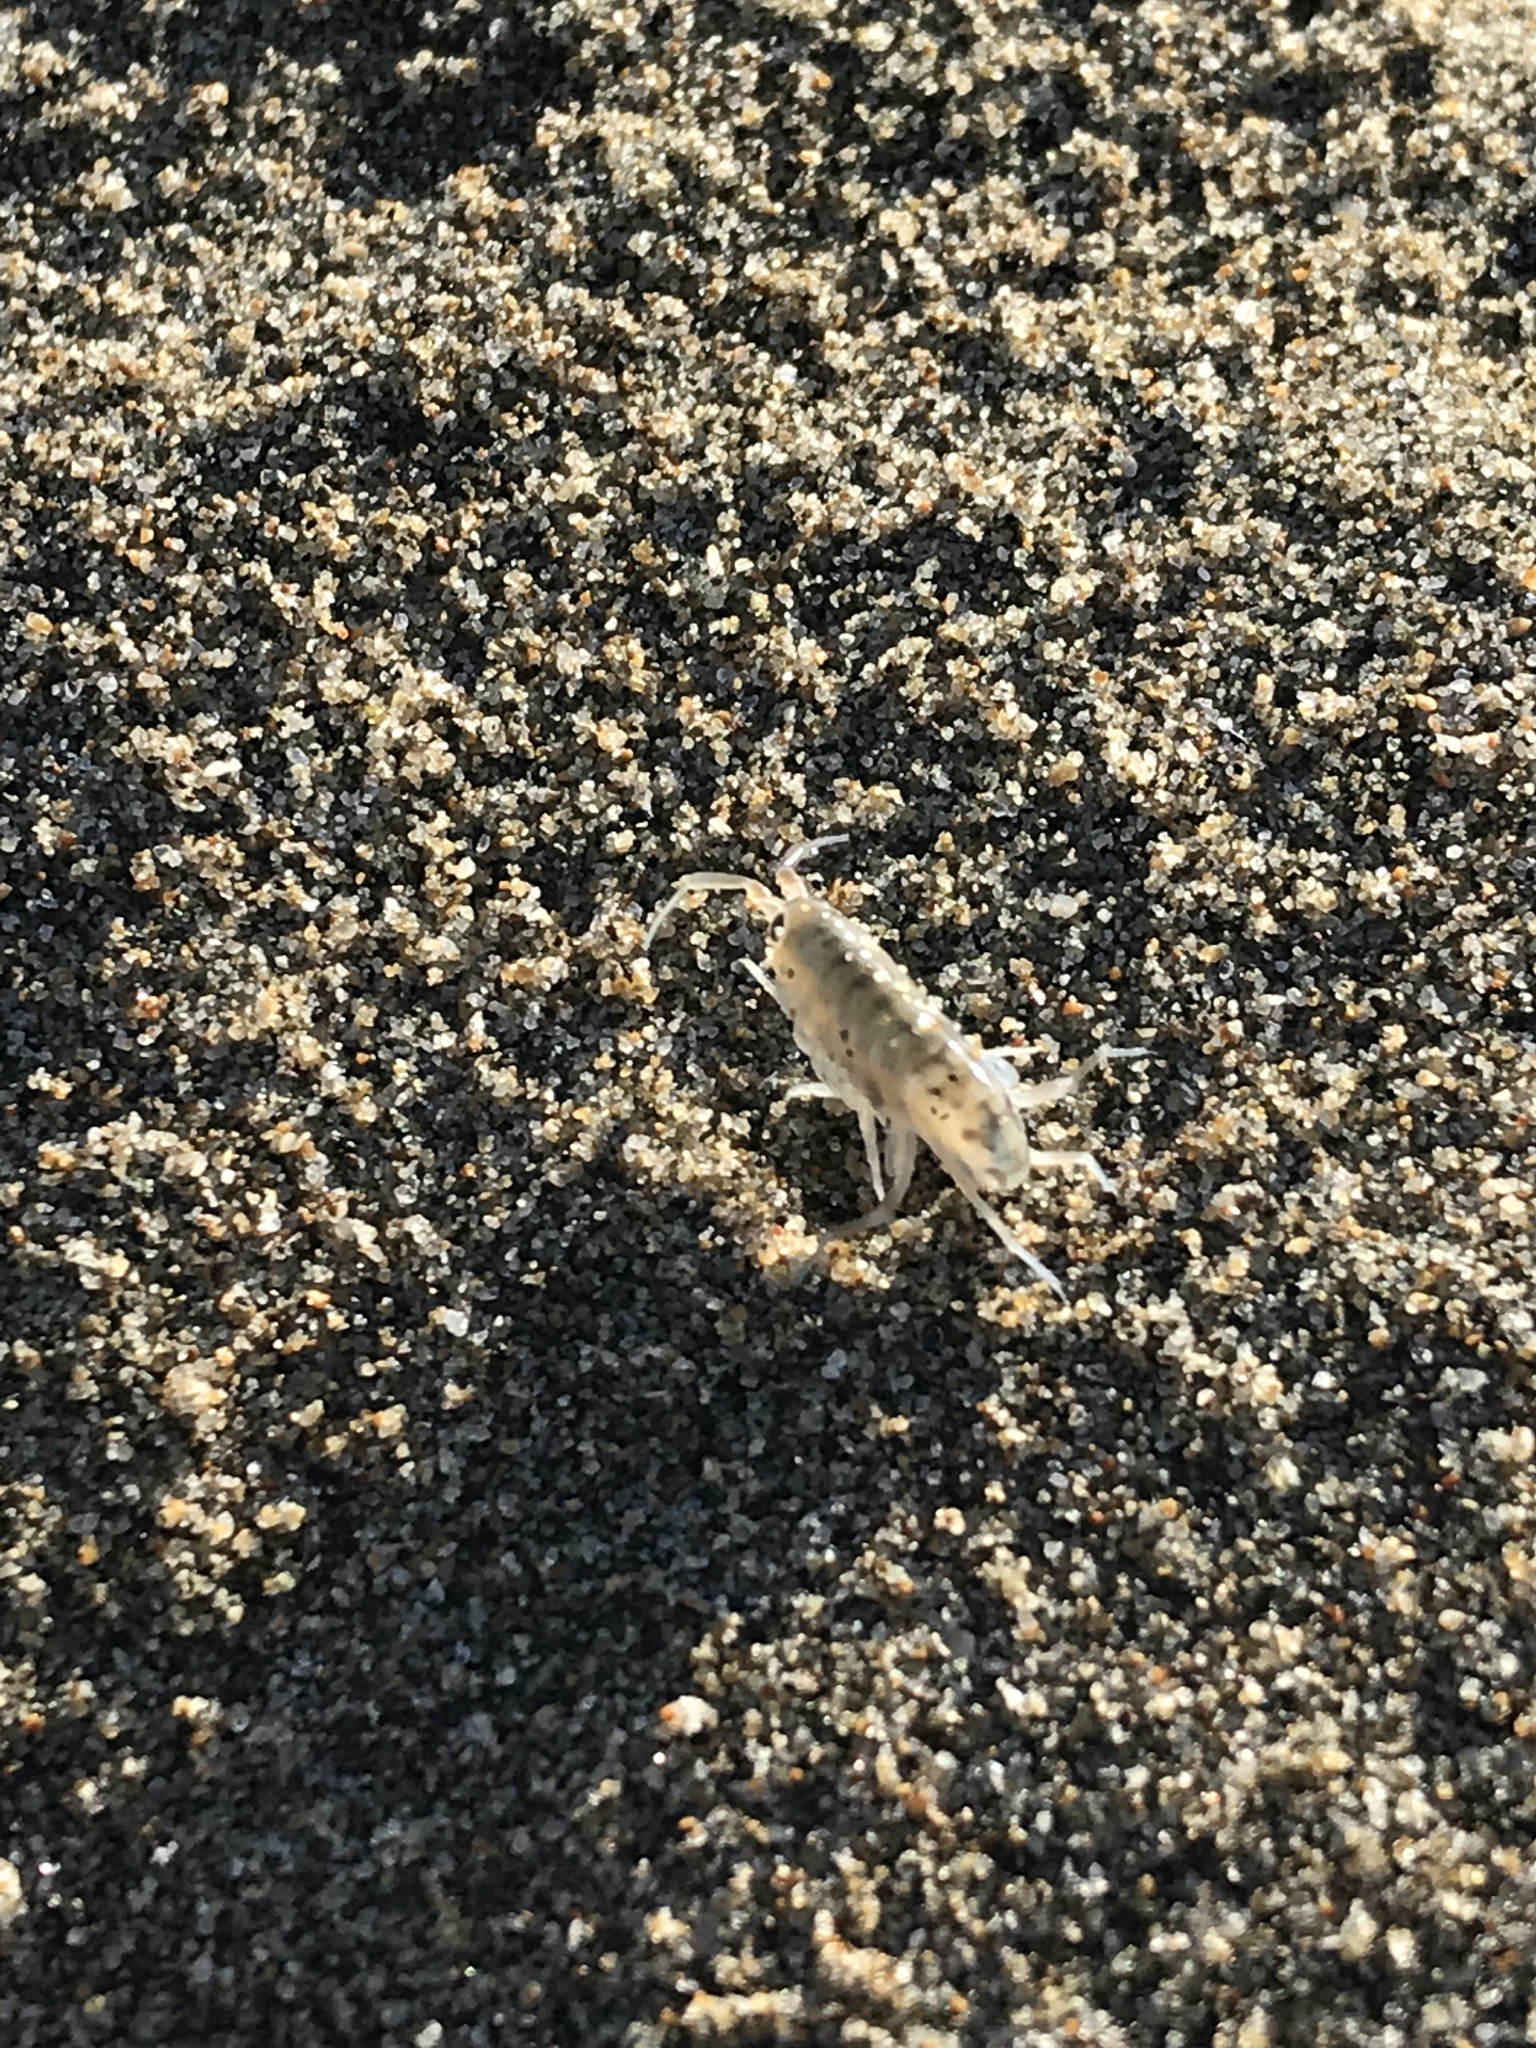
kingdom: Animalia
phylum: Arthropoda
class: Malacostraca
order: Amphipoda
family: Talitridae
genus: Megalorchestia
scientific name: Megalorchestia californiana
